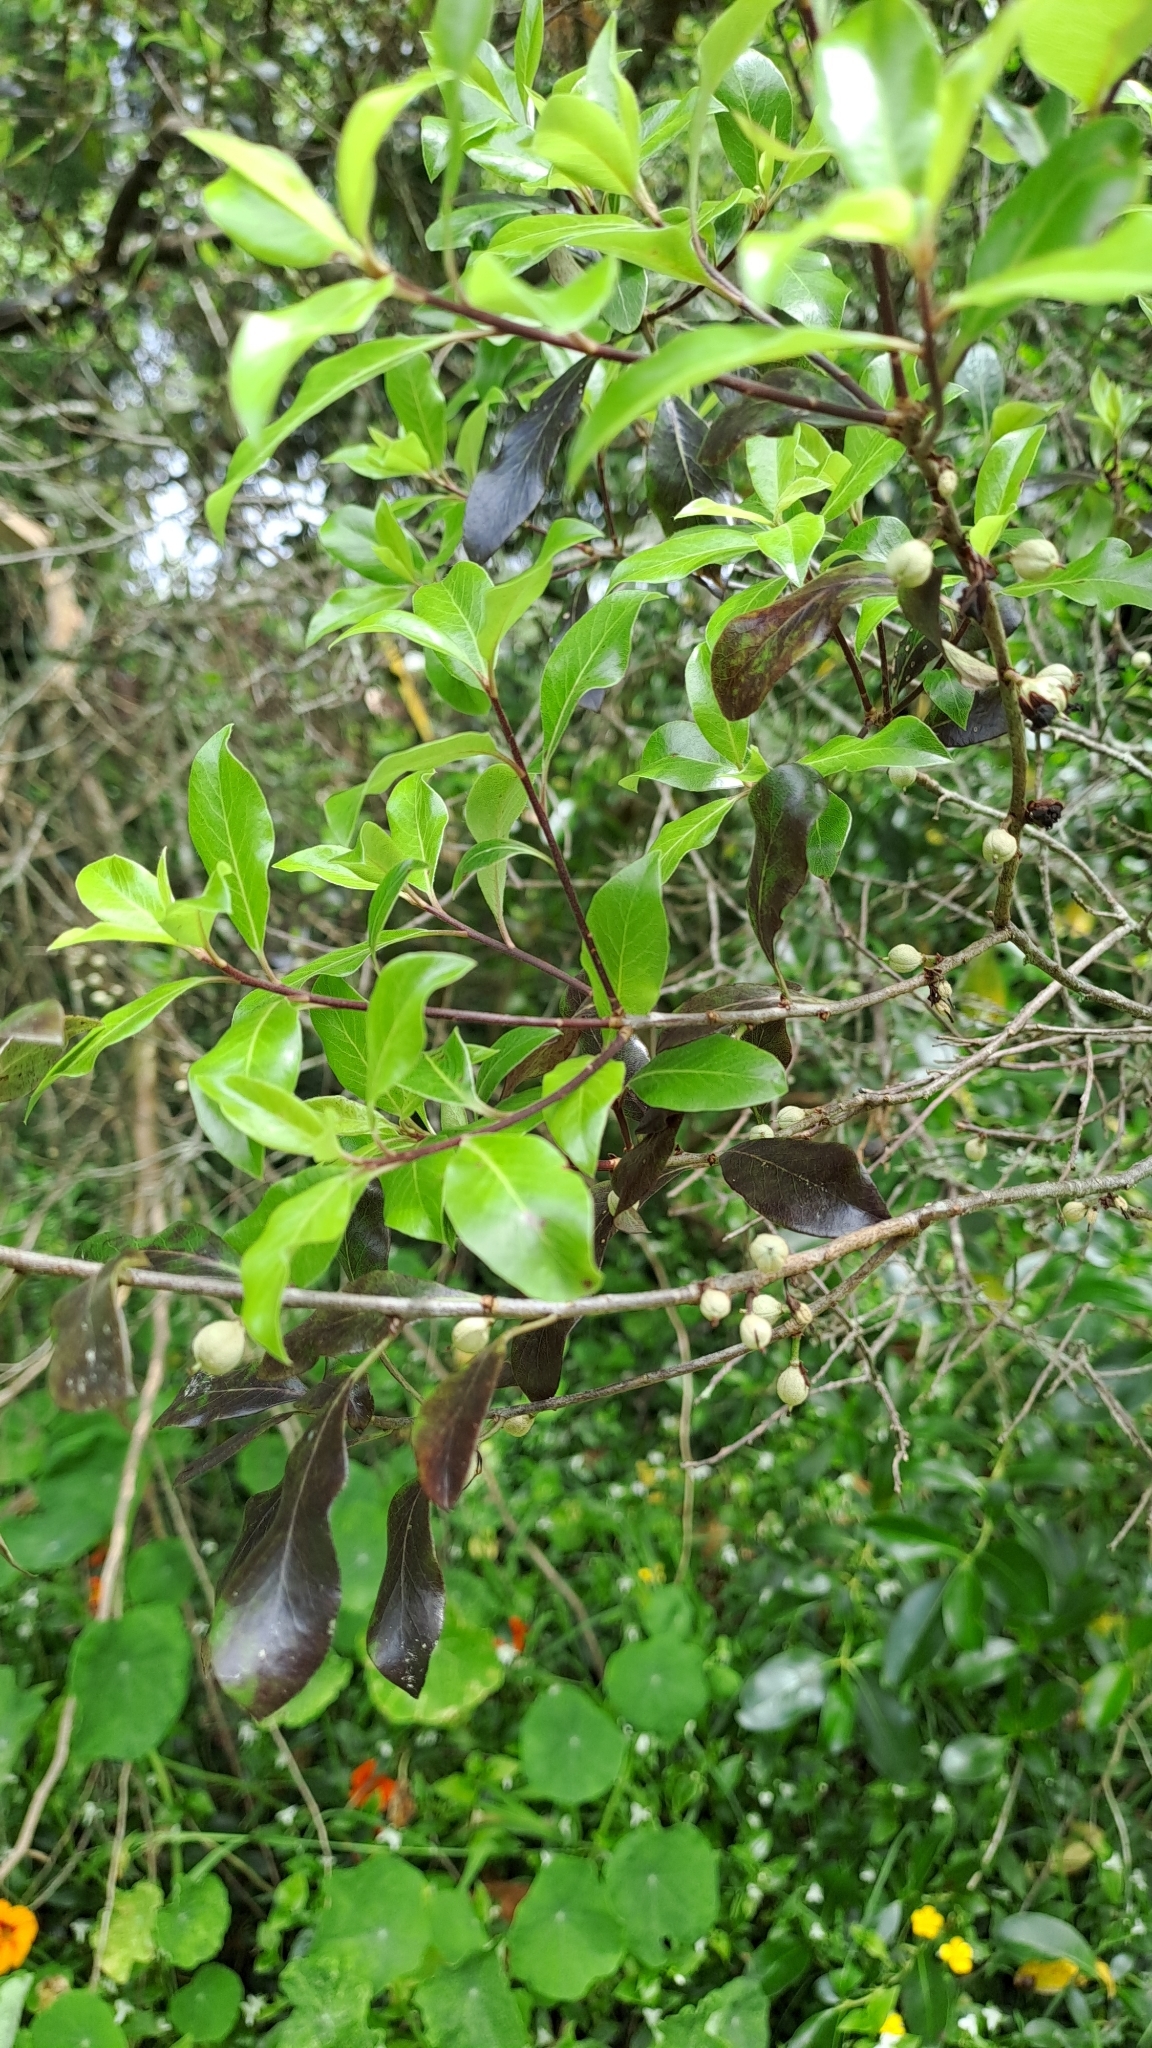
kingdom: Plantae
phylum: Tracheophyta
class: Magnoliopsida
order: Apiales
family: Pittosporaceae
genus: Pittosporum
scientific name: Pittosporum tenuifolium
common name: Kohuhu
